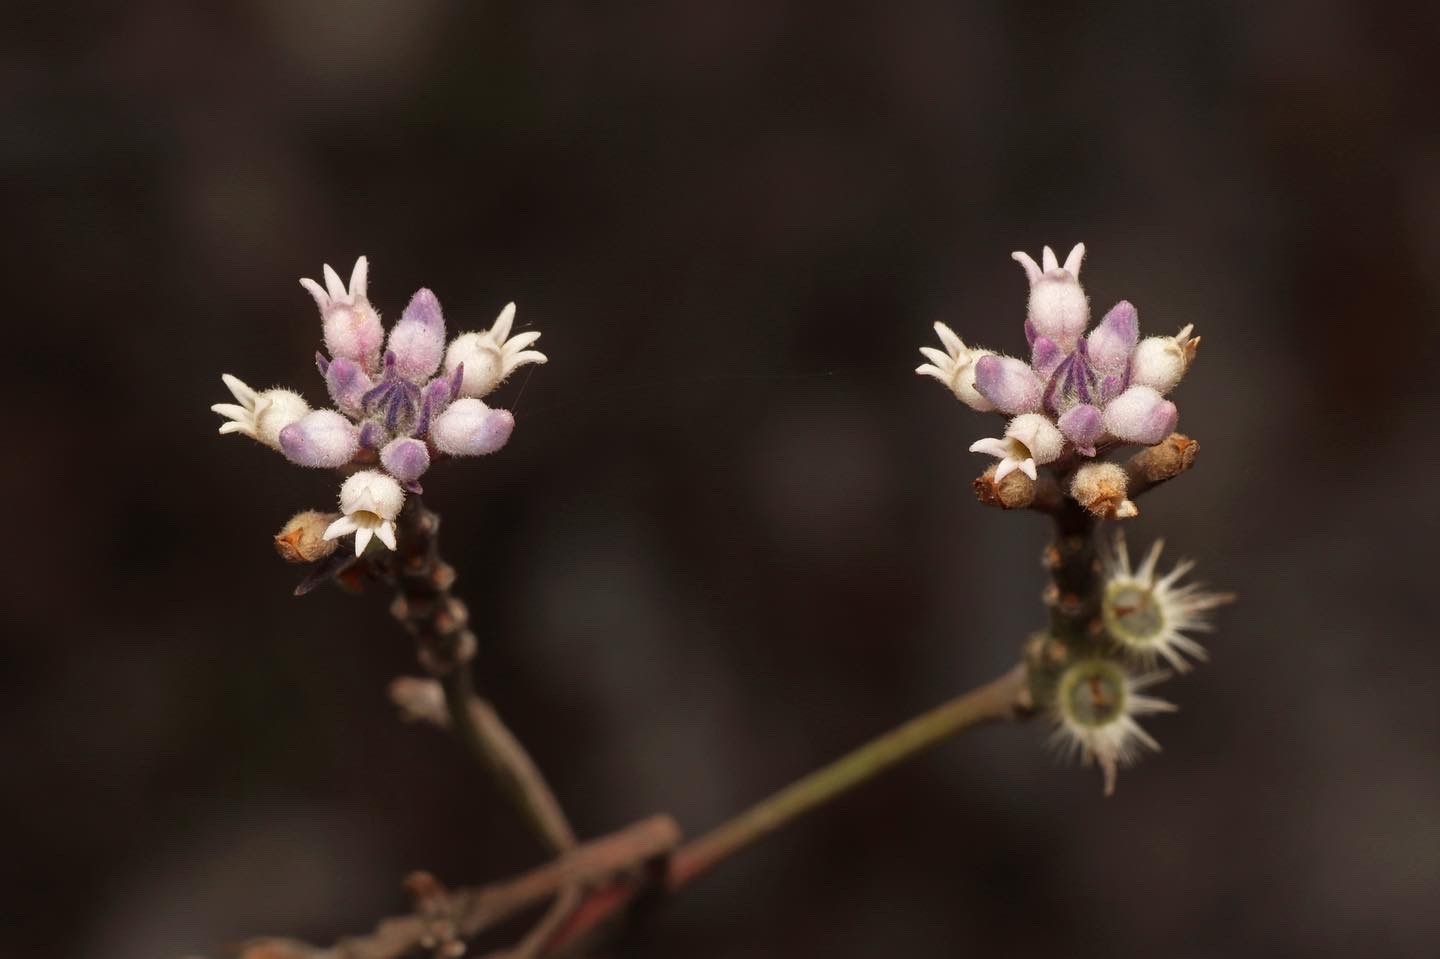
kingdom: Plantae
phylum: Tracheophyta
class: Magnoliopsida
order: Proteales
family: Proteaceae
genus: Conospermum
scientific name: Conospermum patens
